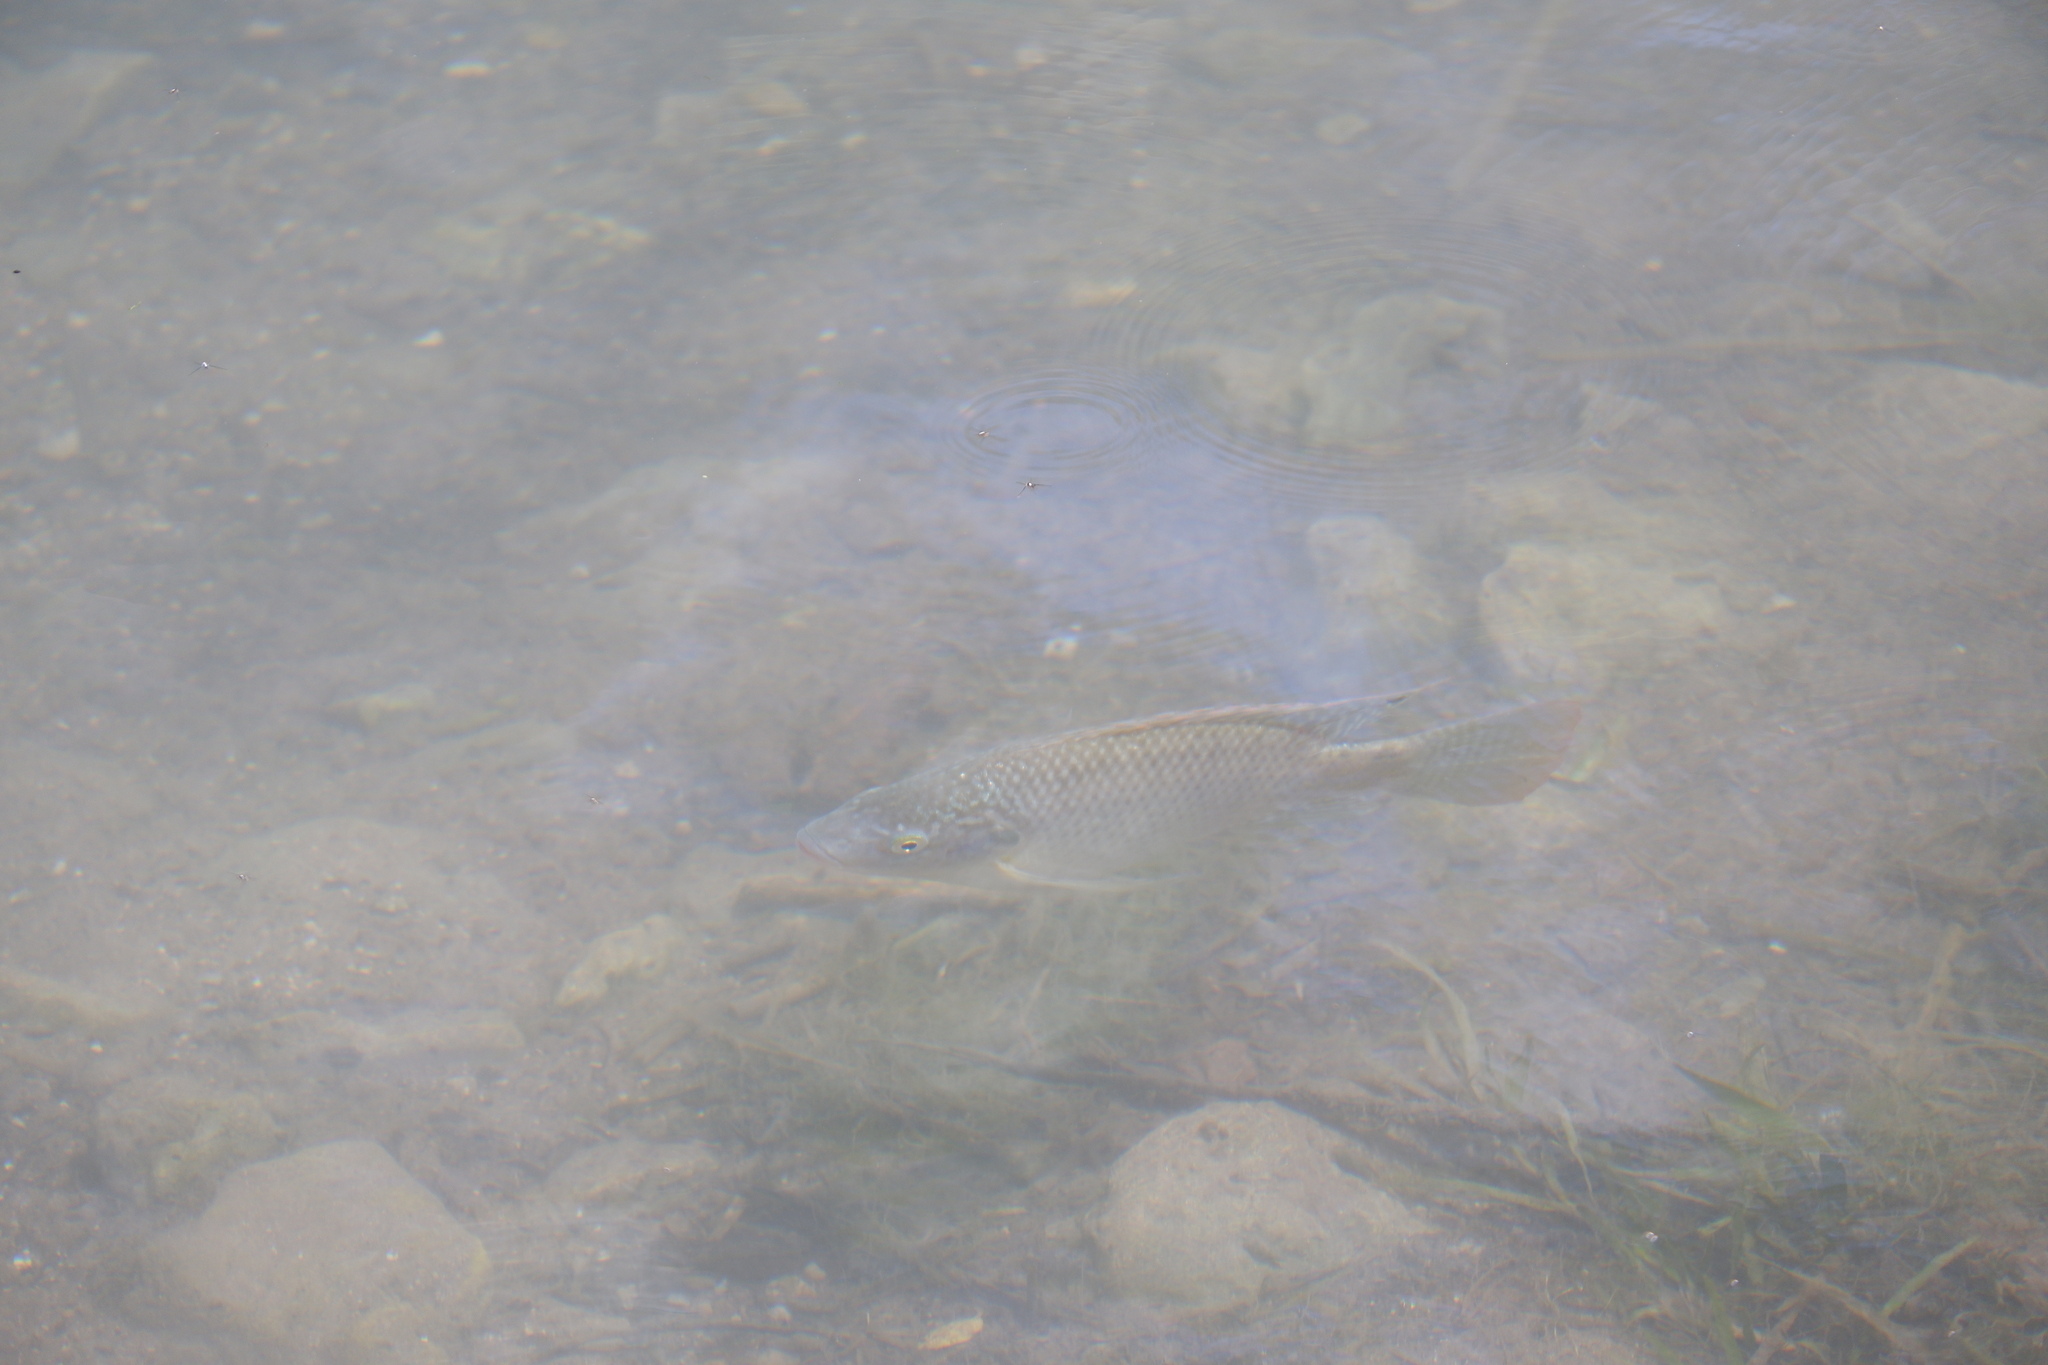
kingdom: Animalia
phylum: Chordata
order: Perciformes
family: Cichlidae
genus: Oreochromis
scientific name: Oreochromis aureus
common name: Blue tilapia
